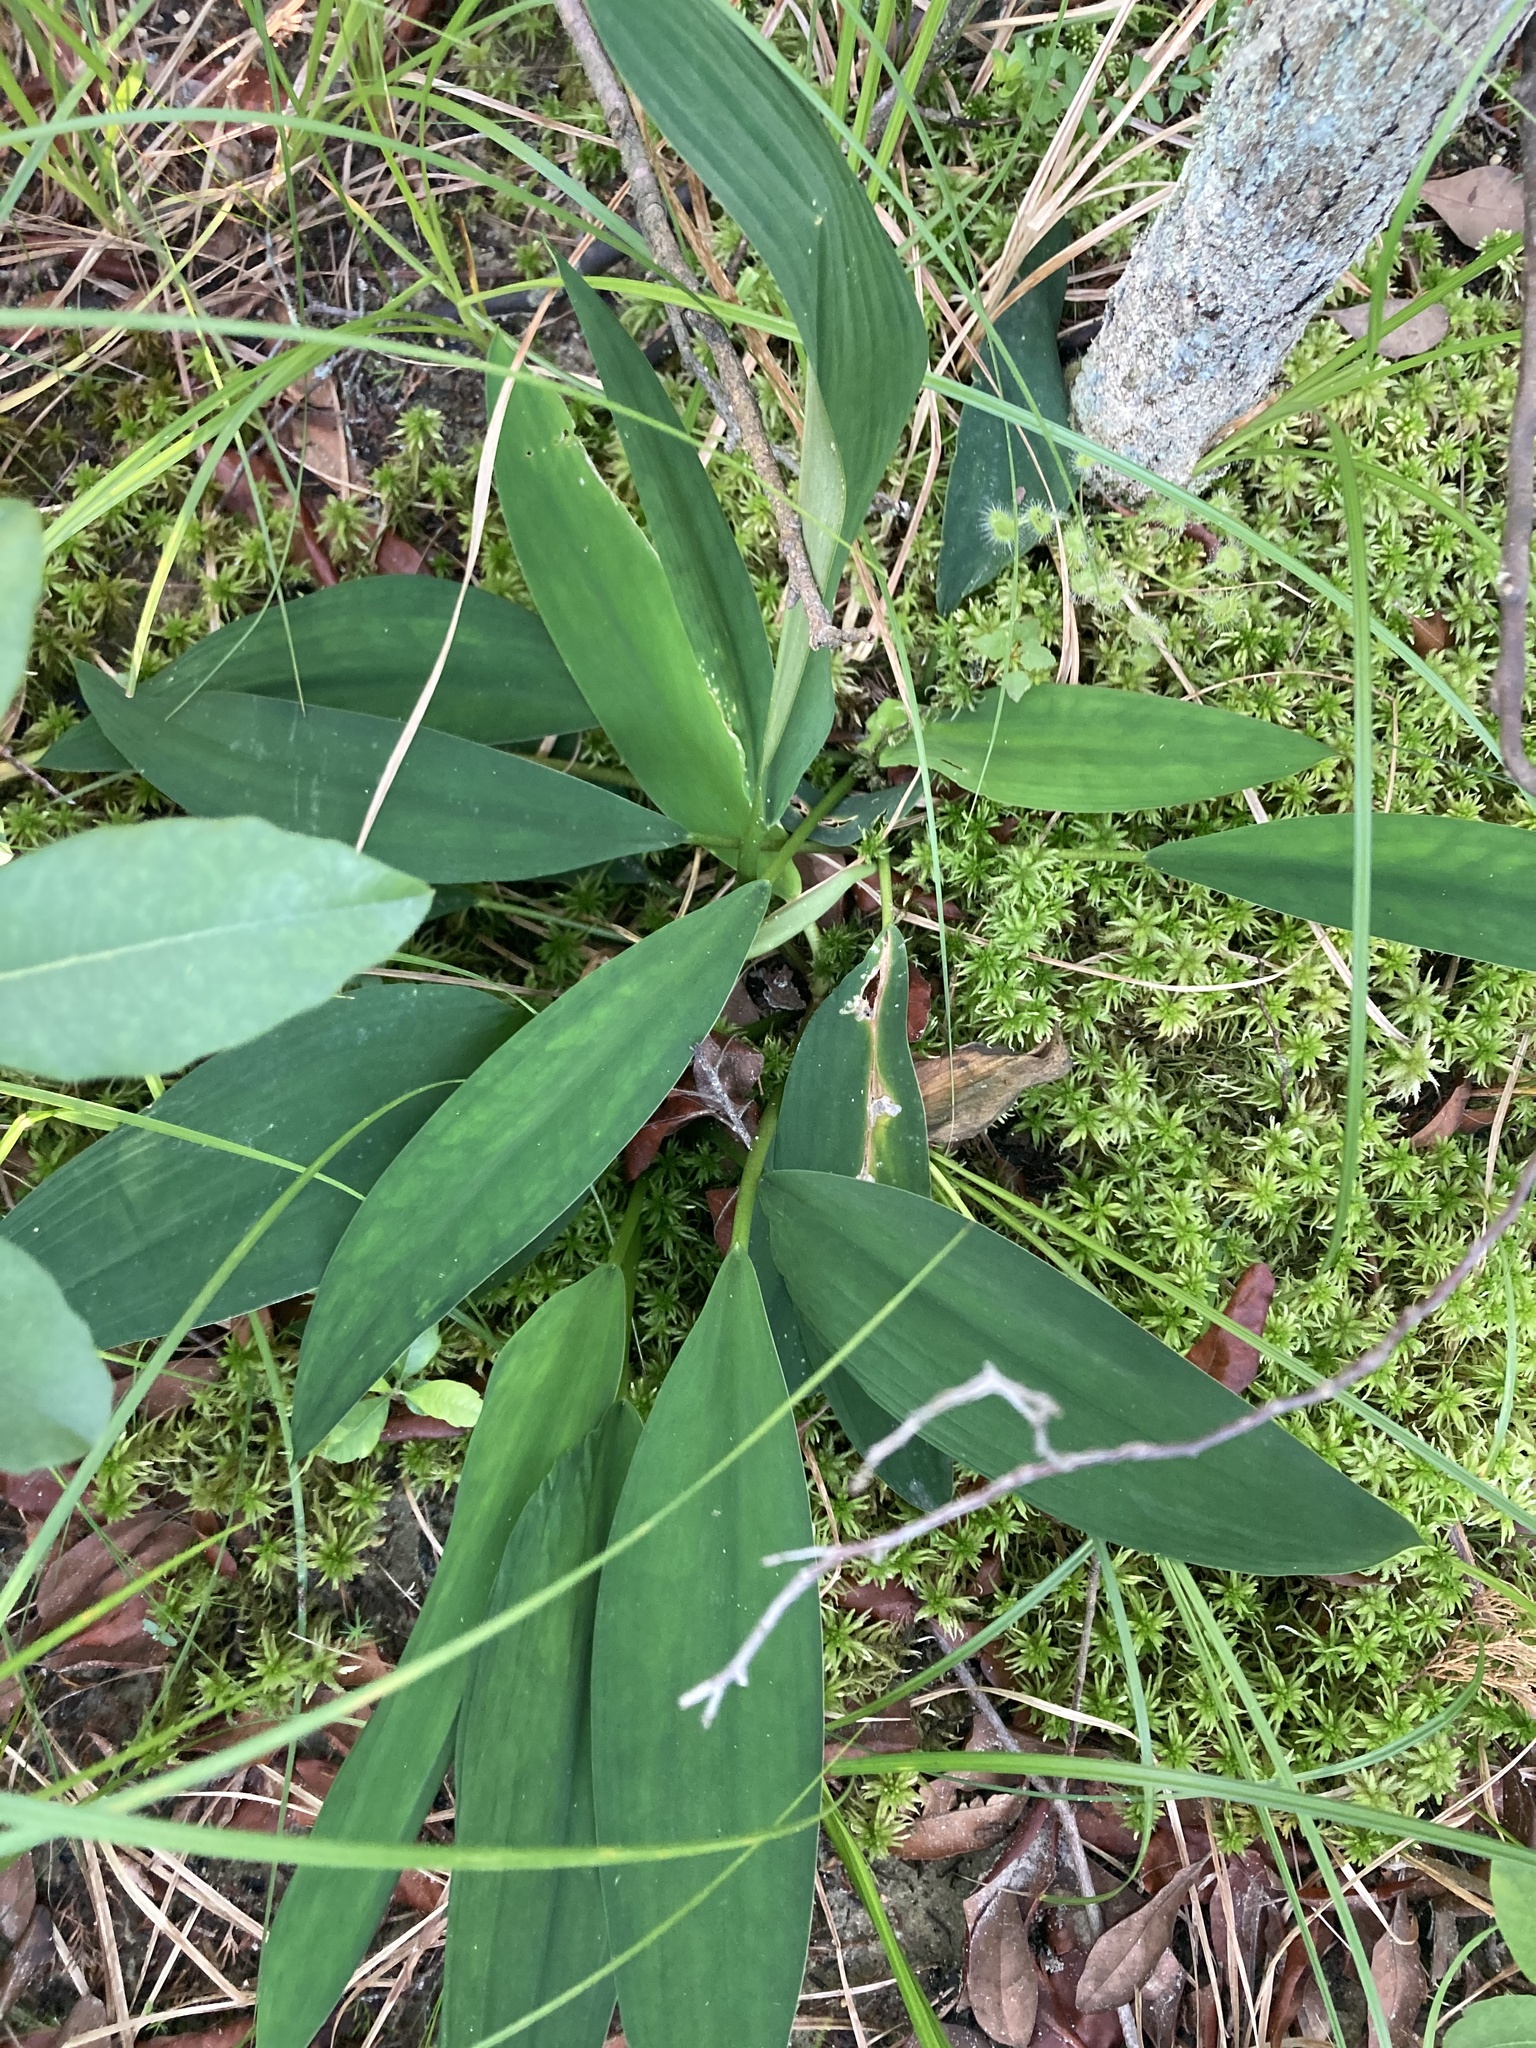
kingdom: Plantae
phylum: Tracheophyta
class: Liliopsida
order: Alismatales
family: Araceae
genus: Orontium
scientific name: Orontium aquaticum
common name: Golden-club
